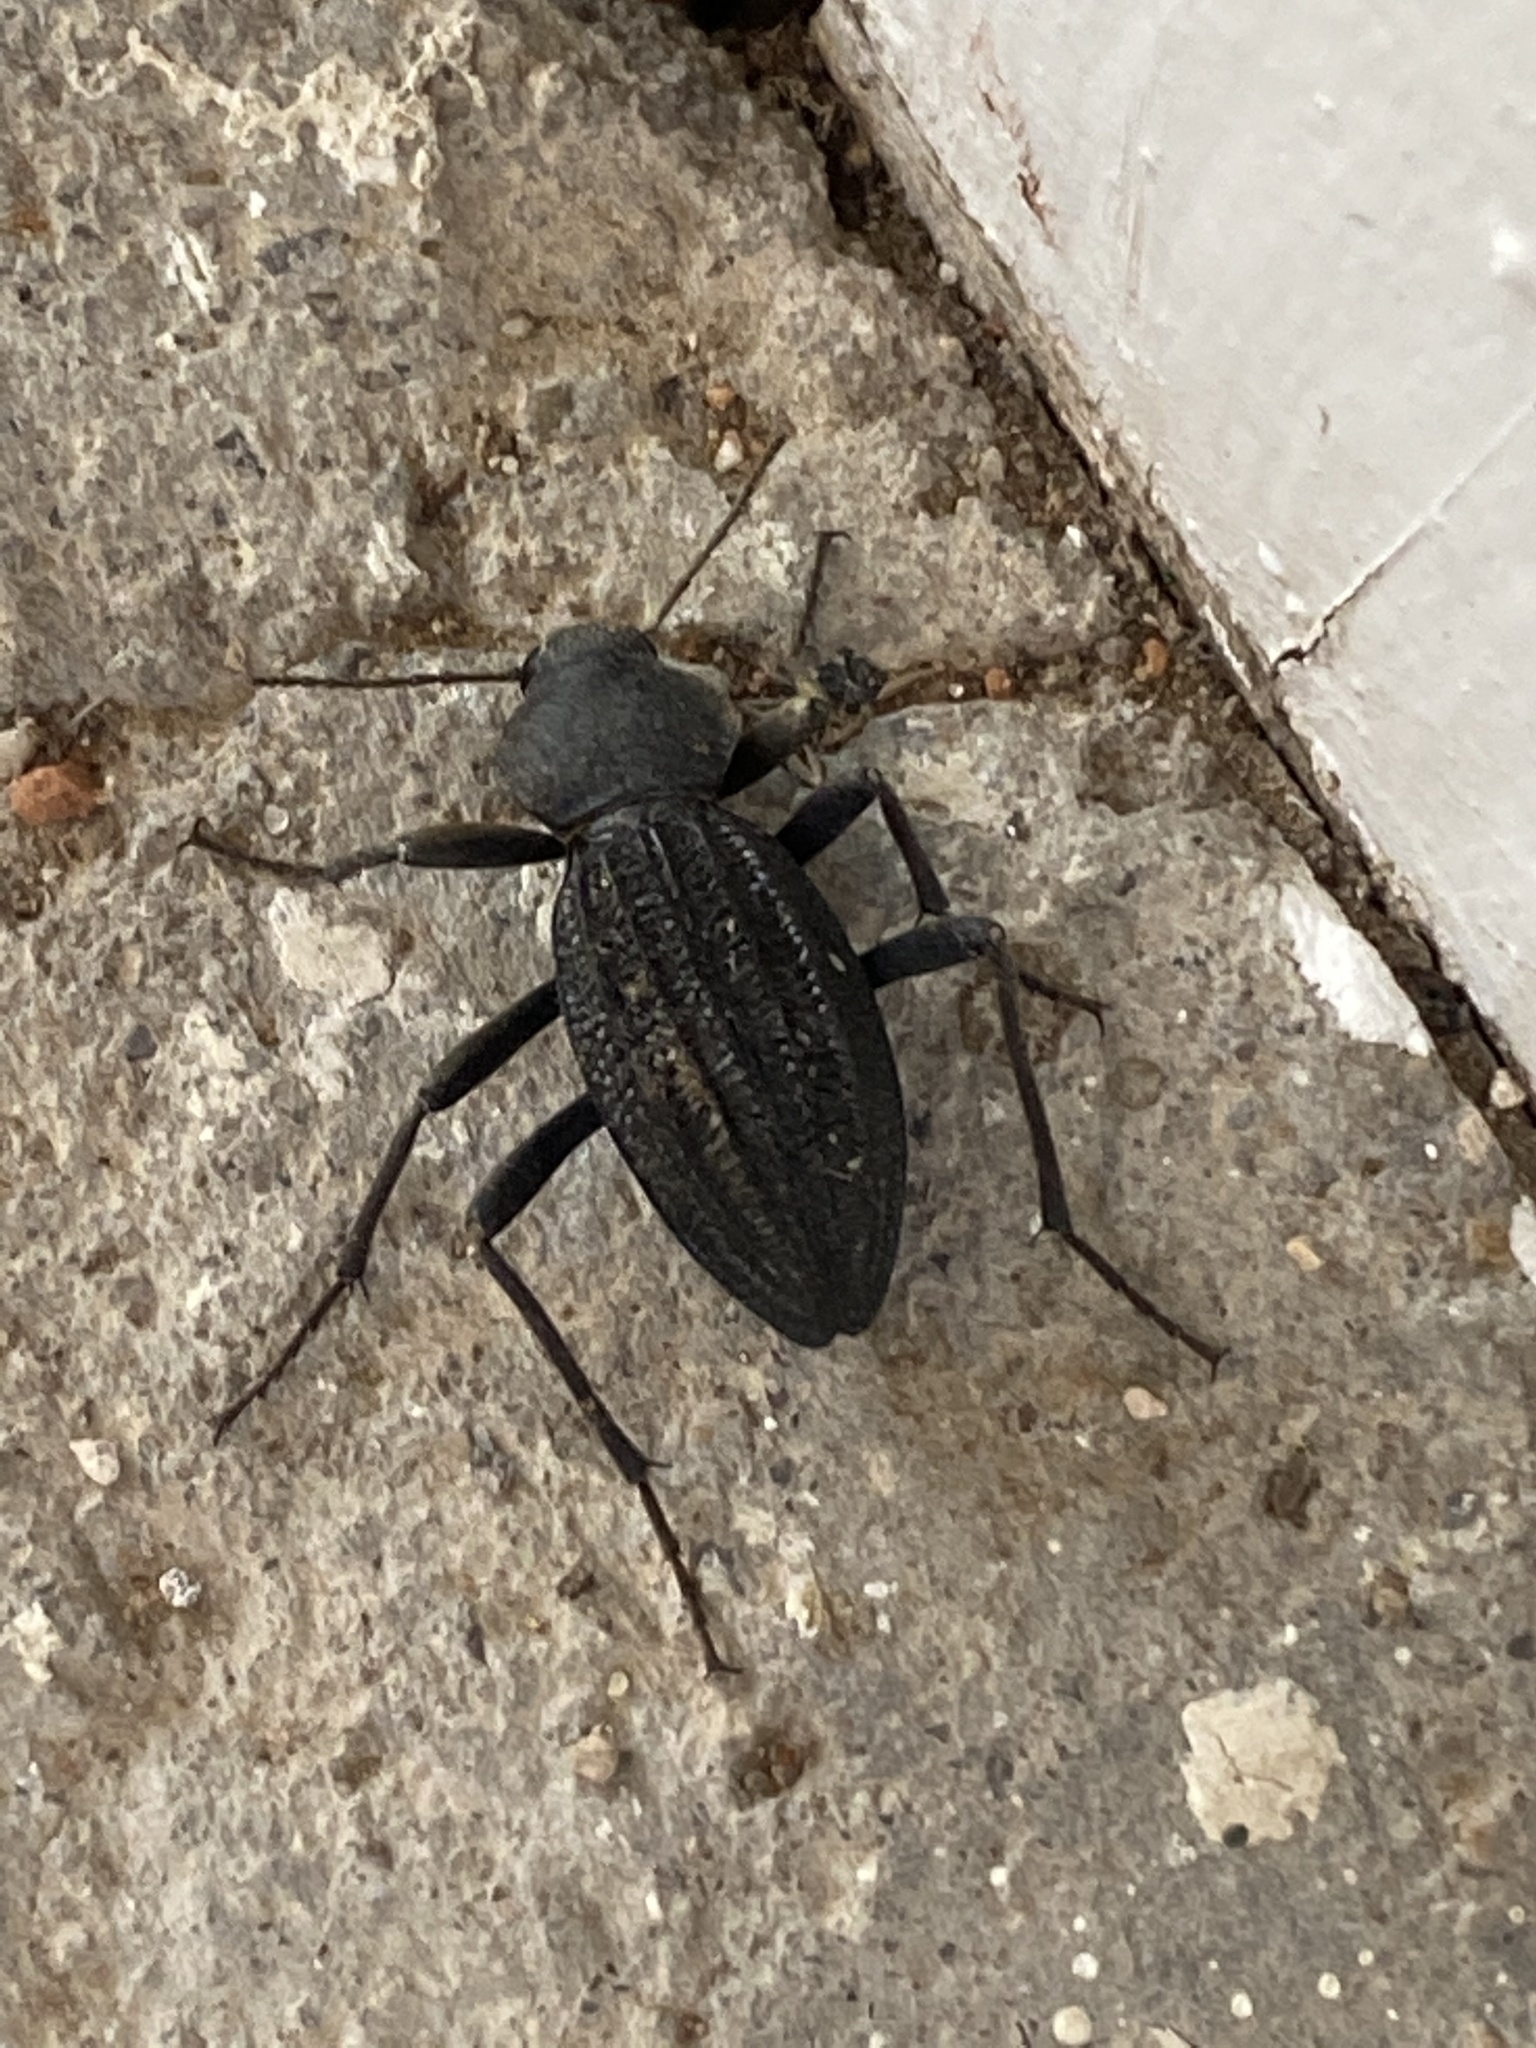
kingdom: Animalia
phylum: Arthropoda
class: Insecta
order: Coleoptera
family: Tenebrionidae
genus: Somaticus
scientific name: Somaticus aeneus
